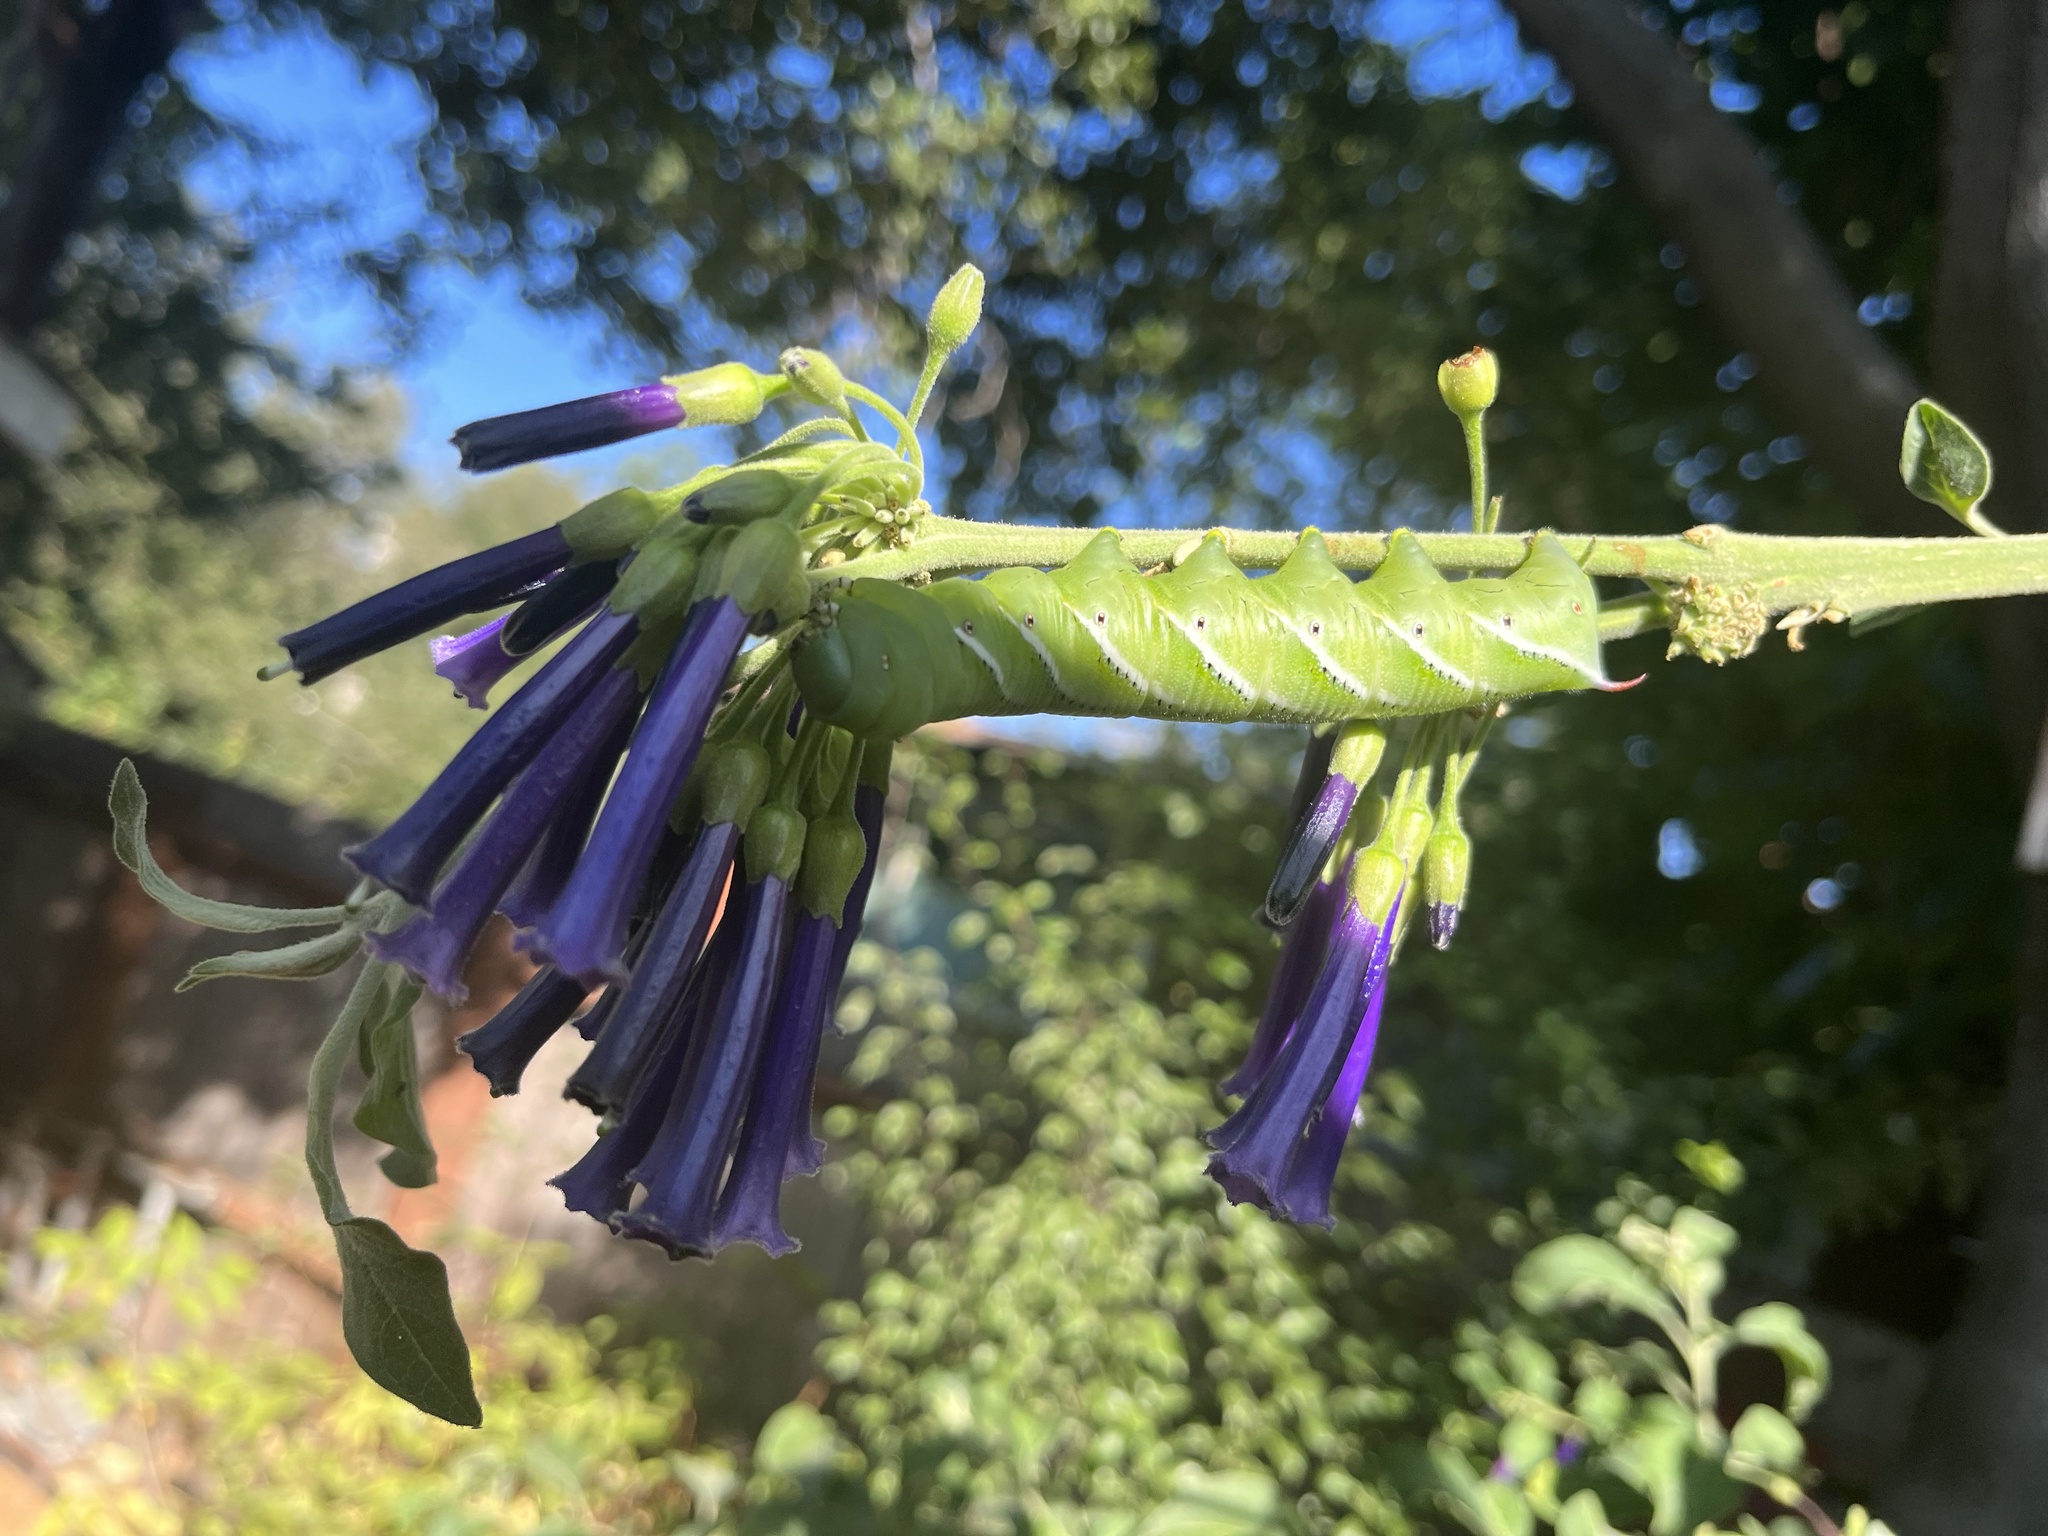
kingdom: Animalia
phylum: Arthropoda
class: Insecta
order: Lepidoptera
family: Sphingidae
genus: Manduca
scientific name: Manduca sexta
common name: Carolina sphinx
